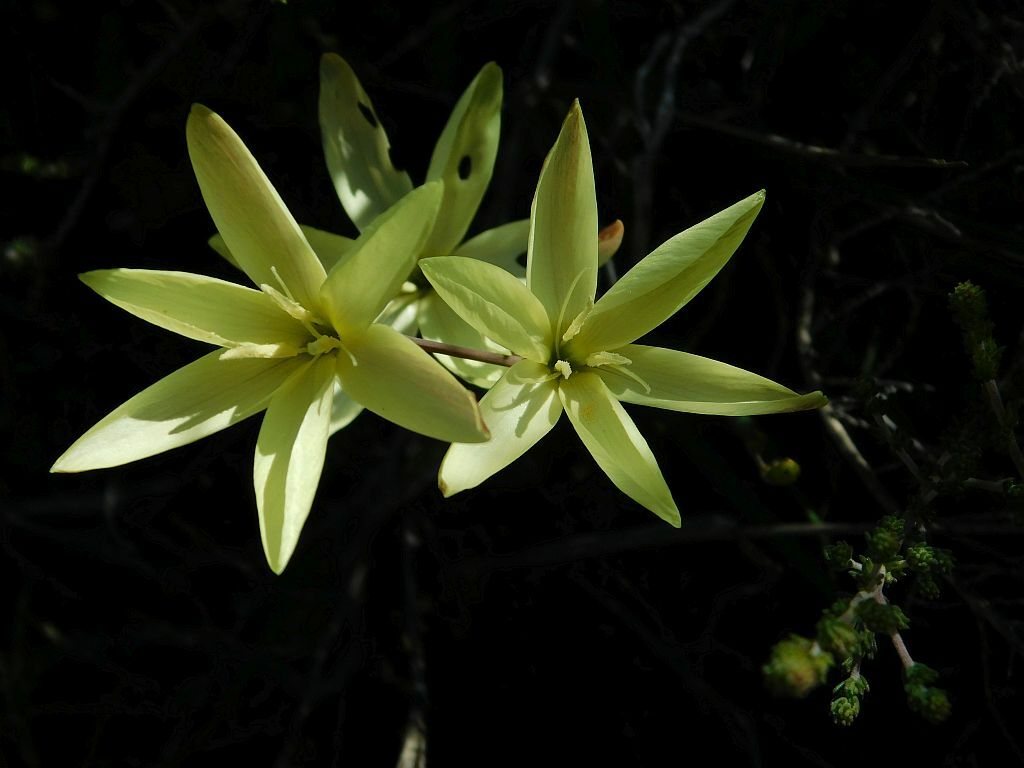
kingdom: Plantae
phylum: Tracheophyta
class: Liliopsida
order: Asparagales
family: Iridaceae
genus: Hesperantha
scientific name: Hesperantha pauciflora
